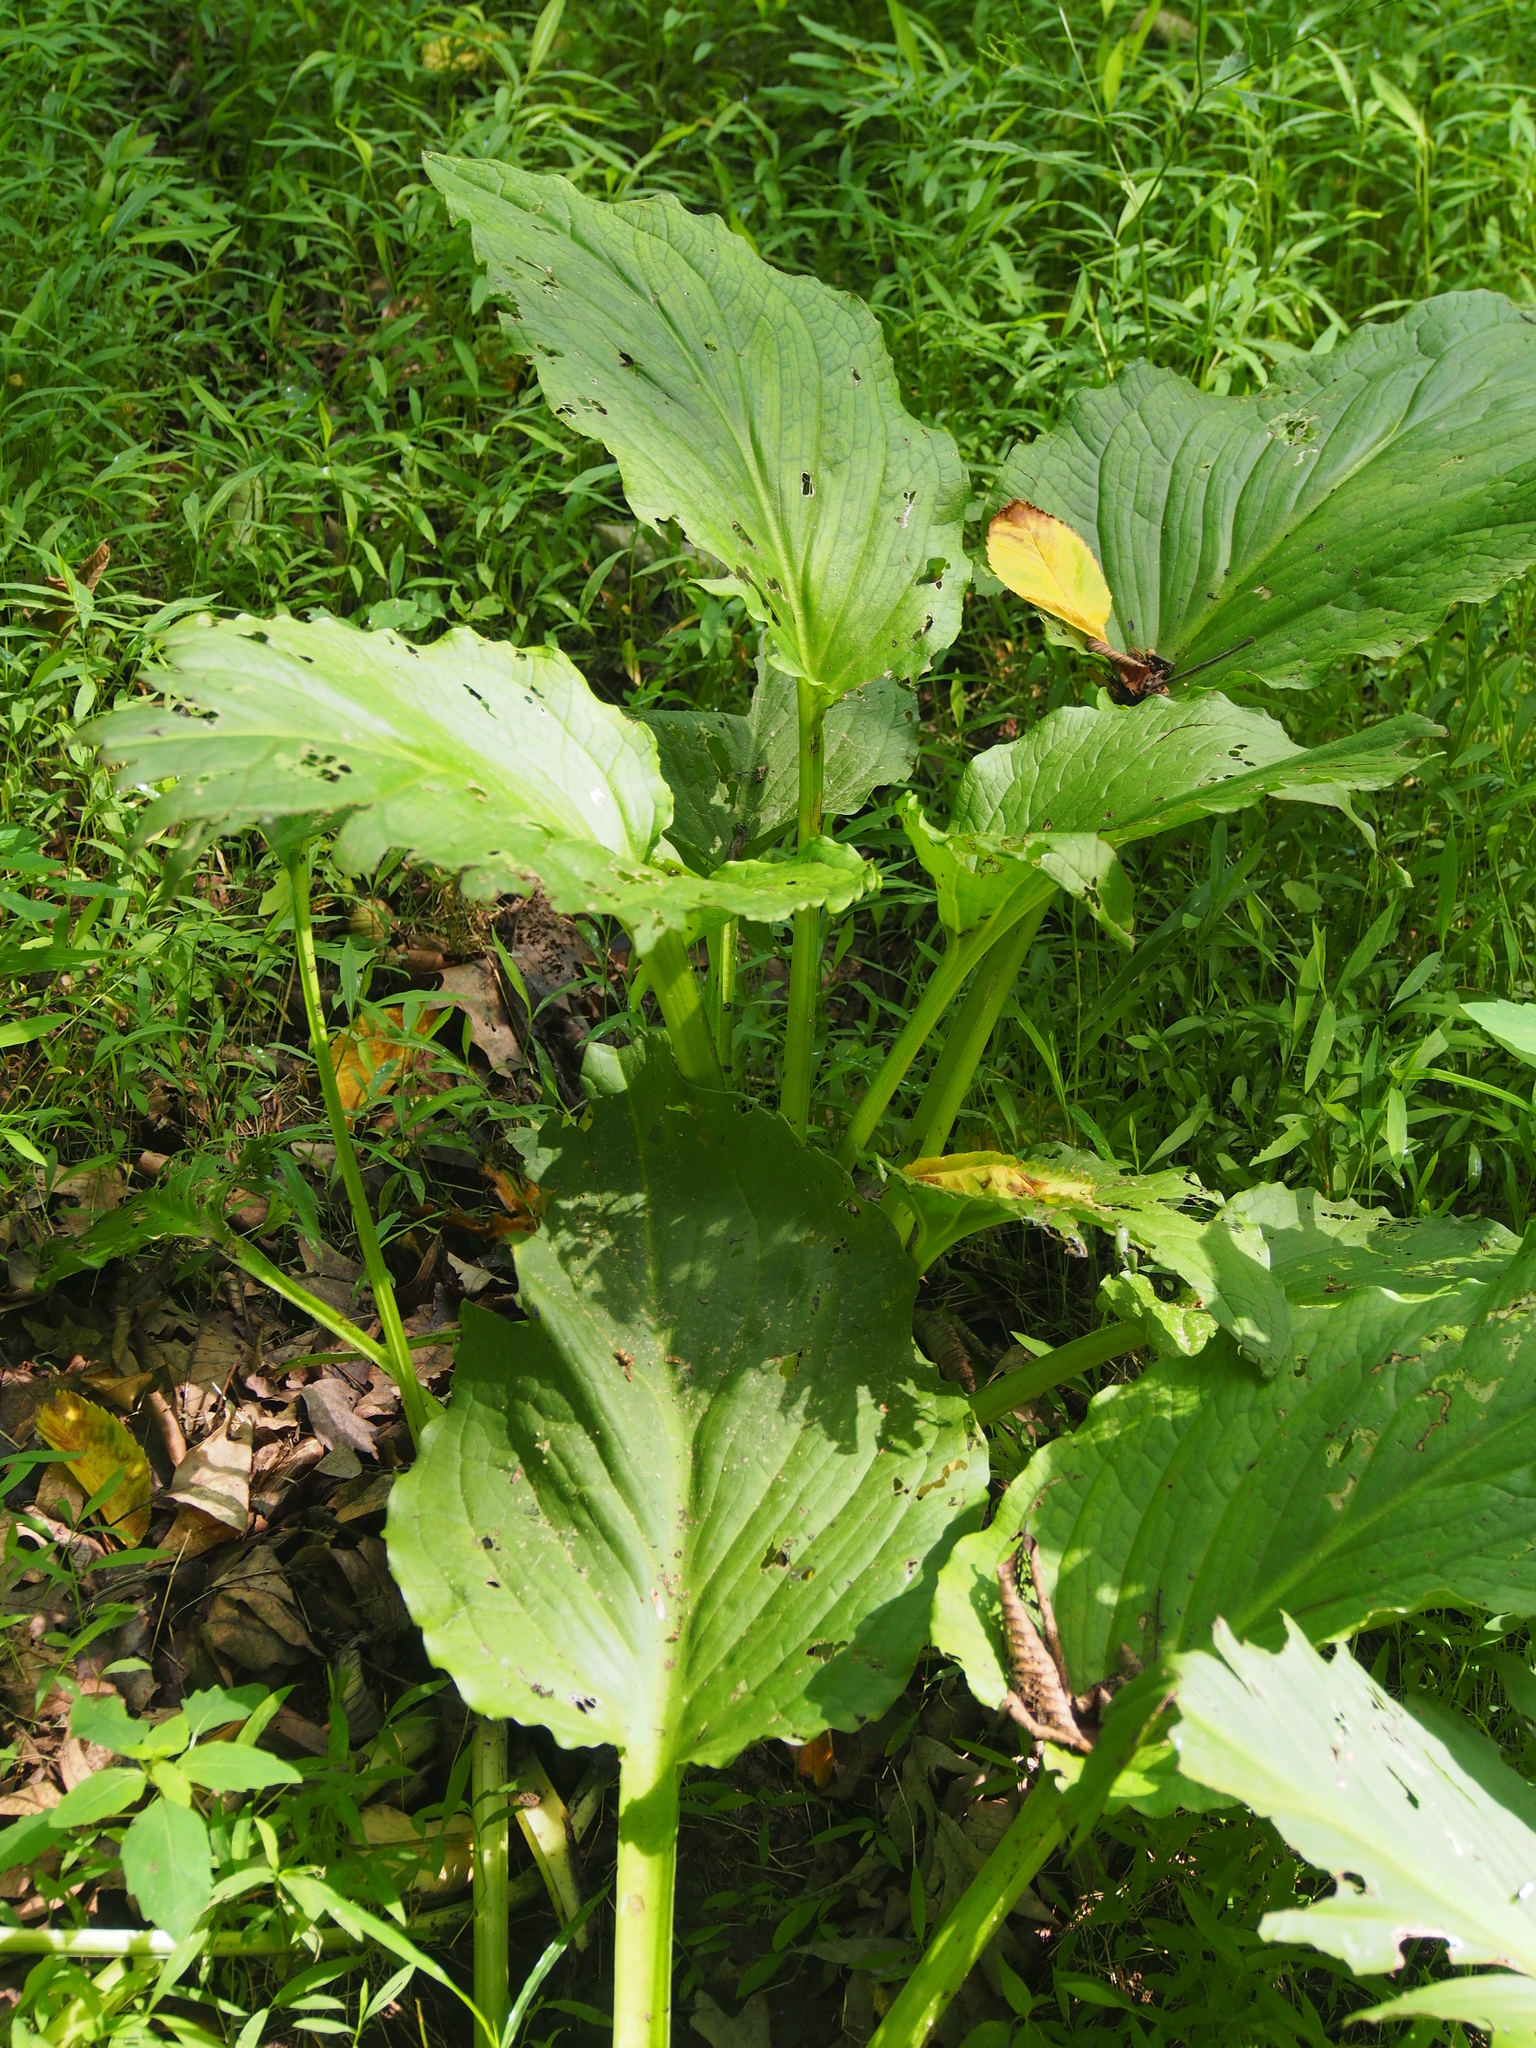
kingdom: Plantae
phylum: Tracheophyta
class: Liliopsida
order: Alismatales
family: Araceae
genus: Symplocarpus
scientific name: Symplocarpus foetidus
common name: Eastern skunk cabbage
